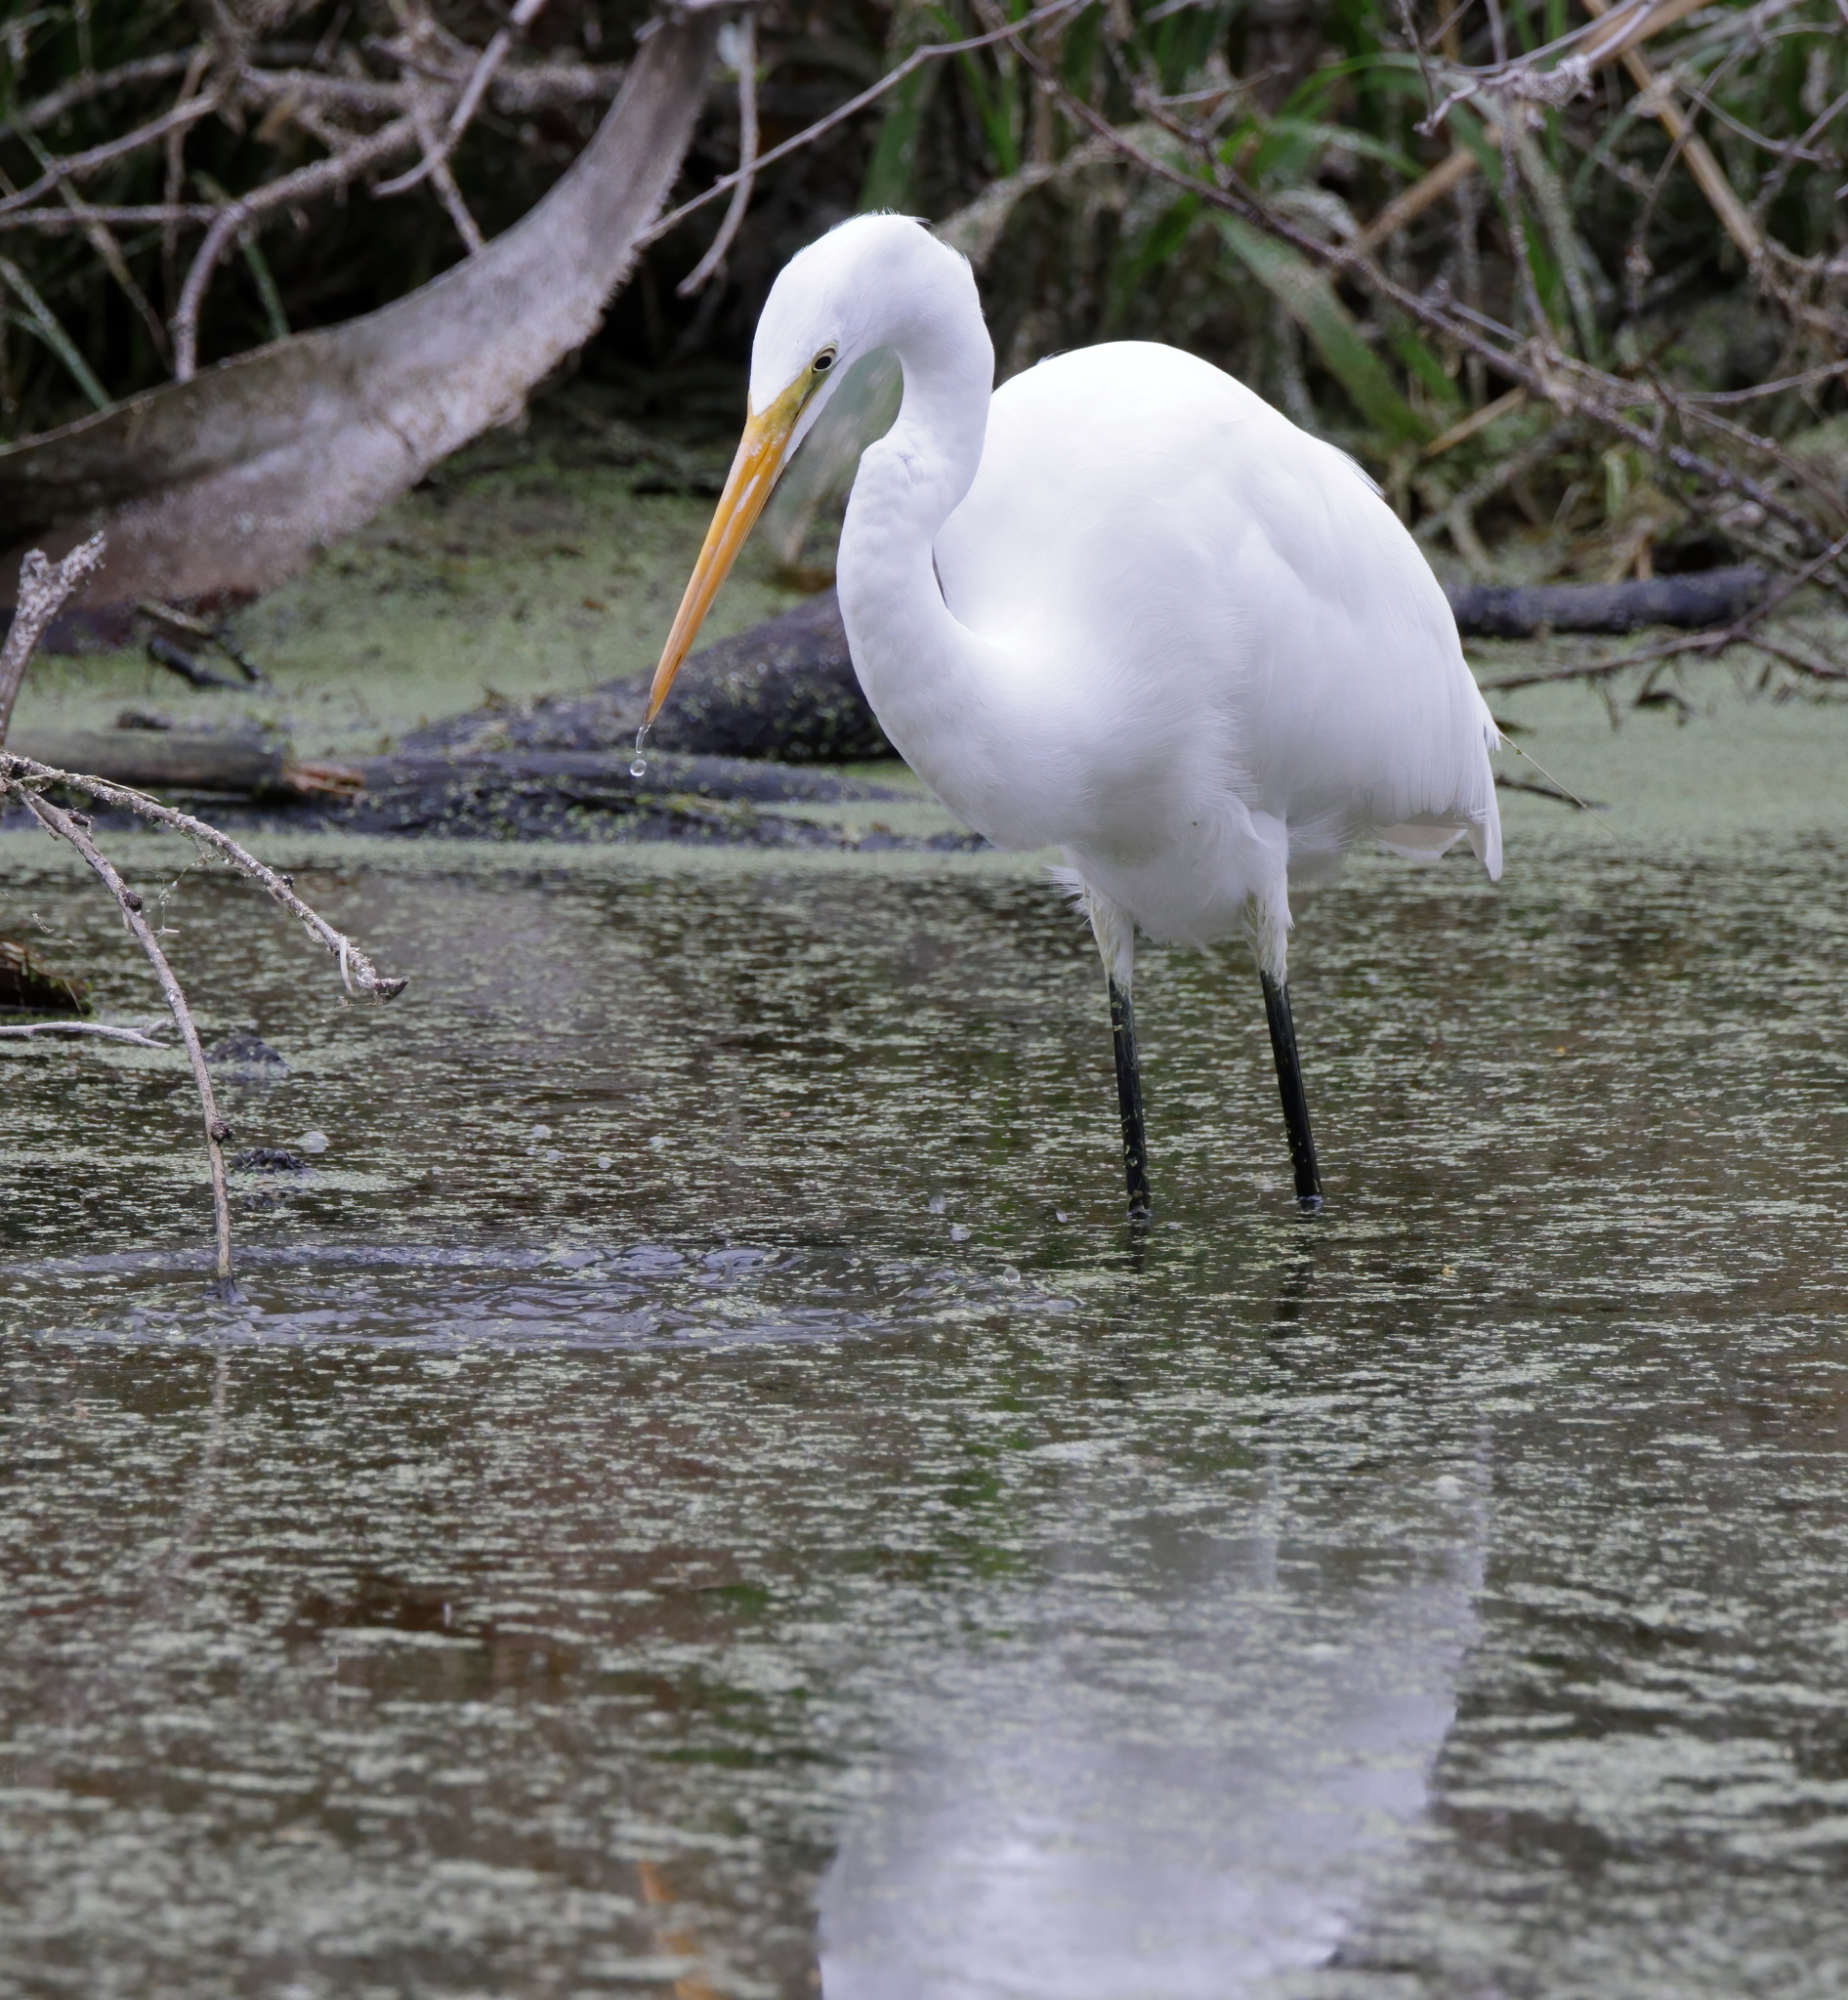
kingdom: Animalia
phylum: Chordata
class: Aves
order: Pelecaniformes
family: Ardeidae
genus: Ardea
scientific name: Ardea alba
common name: Great egret
